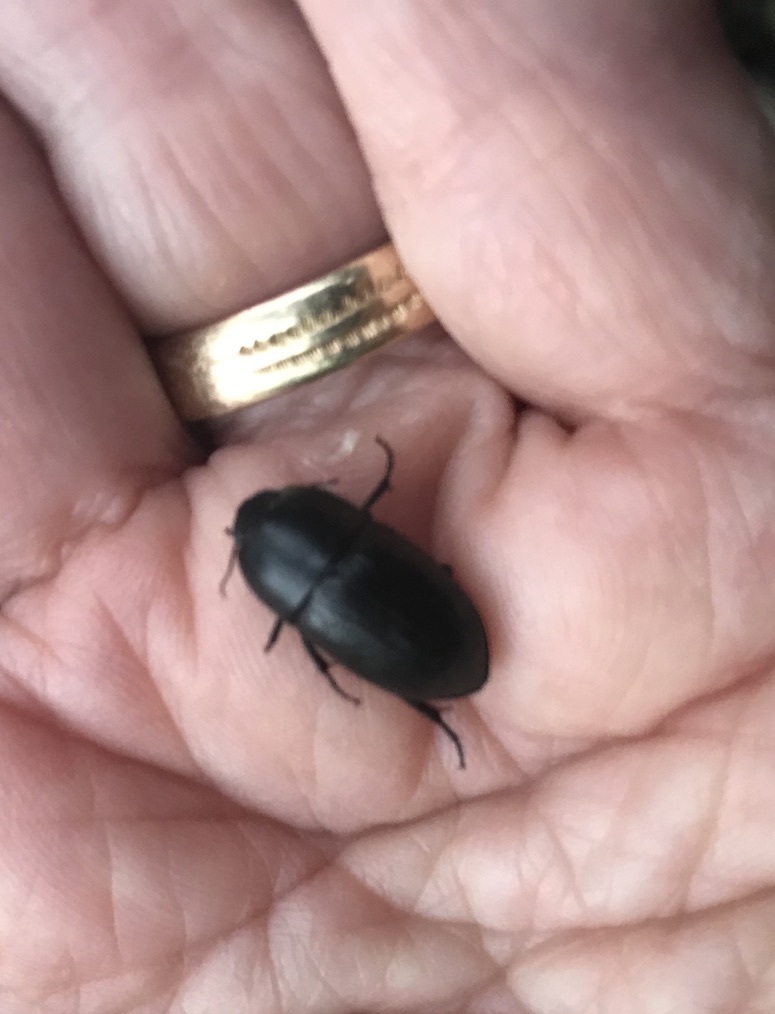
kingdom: Animalia
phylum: Arthropoda
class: Insecta
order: Coleoptera
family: Tenebrionidae
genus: Coniontis
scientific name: Coniontis
